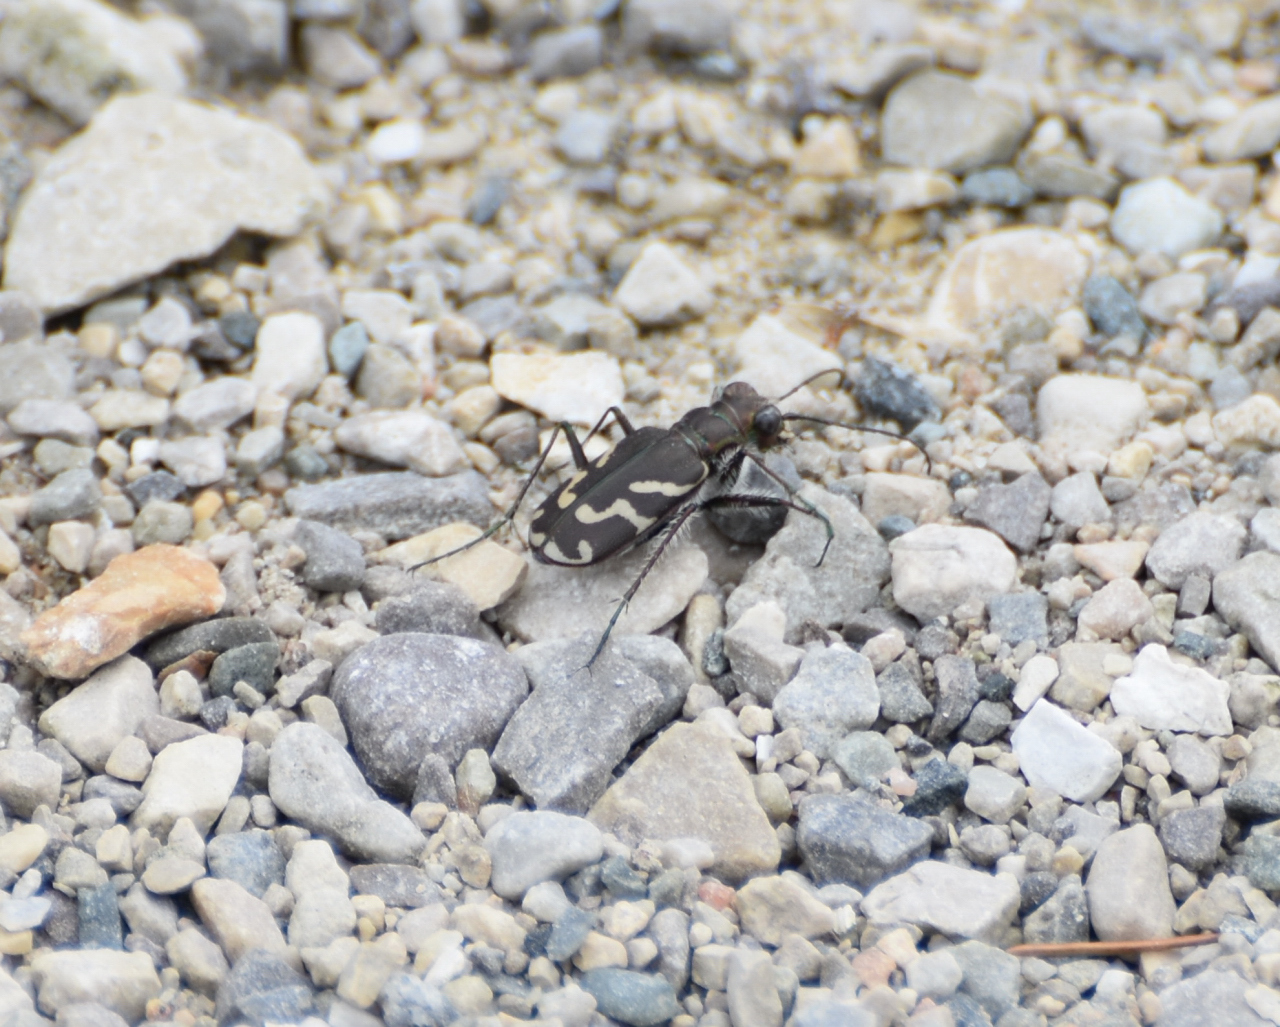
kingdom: Animalia
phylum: Arthropoda
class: Insecta
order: Coleoptera
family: Carabidae
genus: Cicindela
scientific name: Cicindela tranquebarica
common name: Oblique-lined tiger beetle
